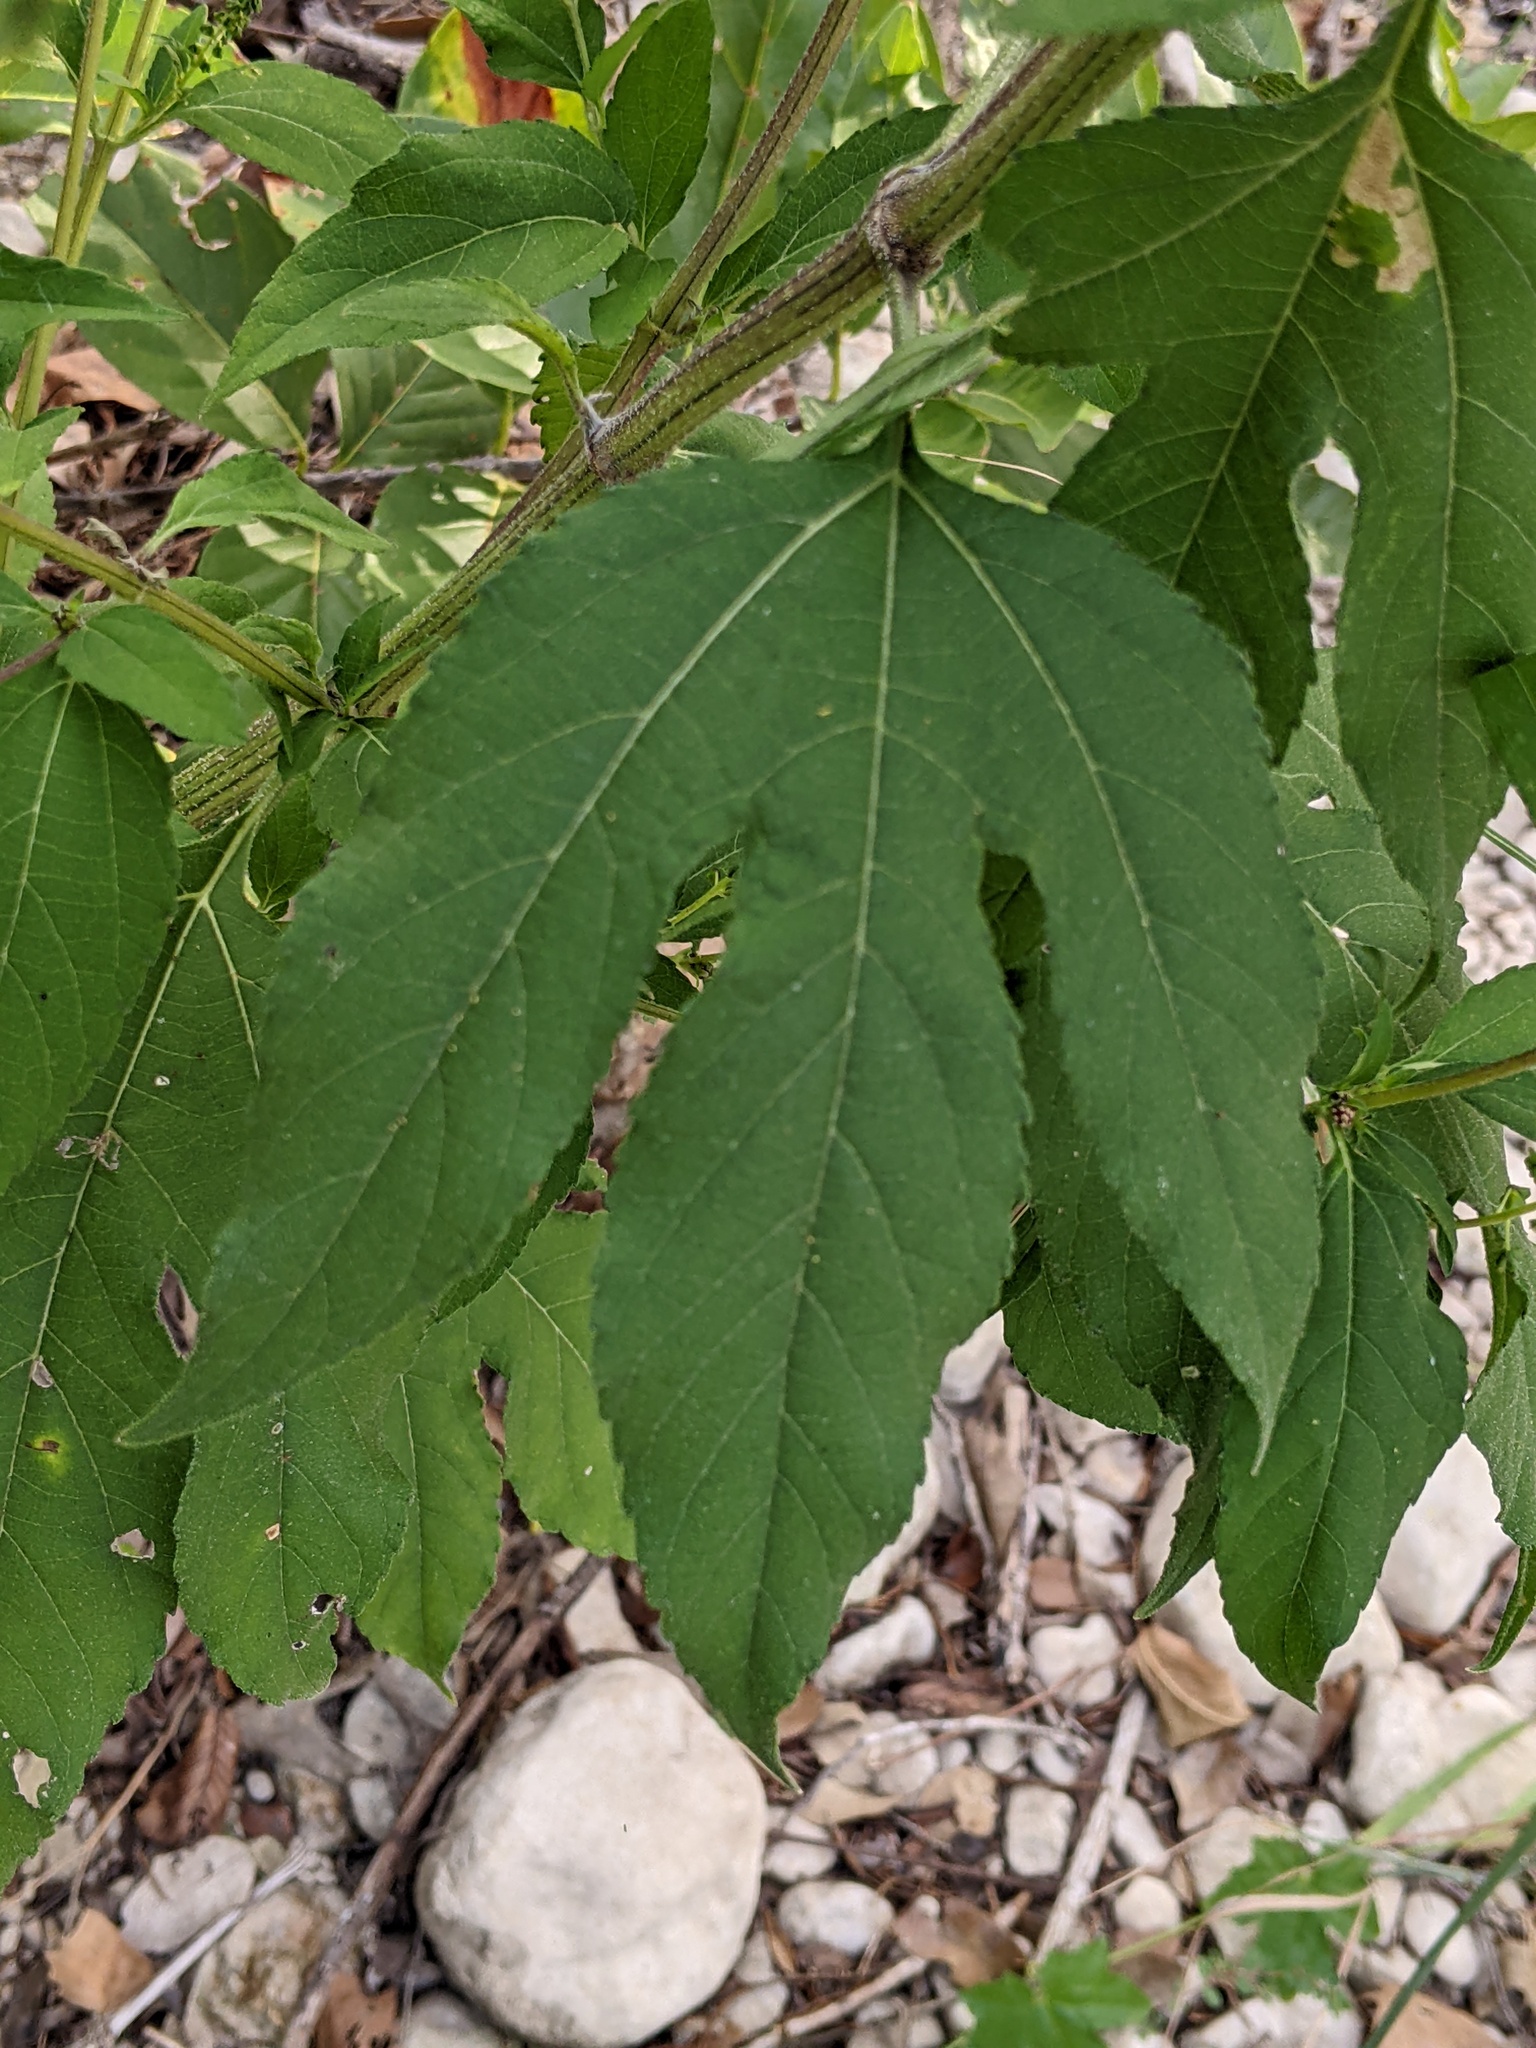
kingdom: Plantae
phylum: Tracheophyta
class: Magnoliopsida
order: Asterales
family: Asteraceae
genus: Ambrosia
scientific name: Ambrosia trifida
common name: Giant ragweed
